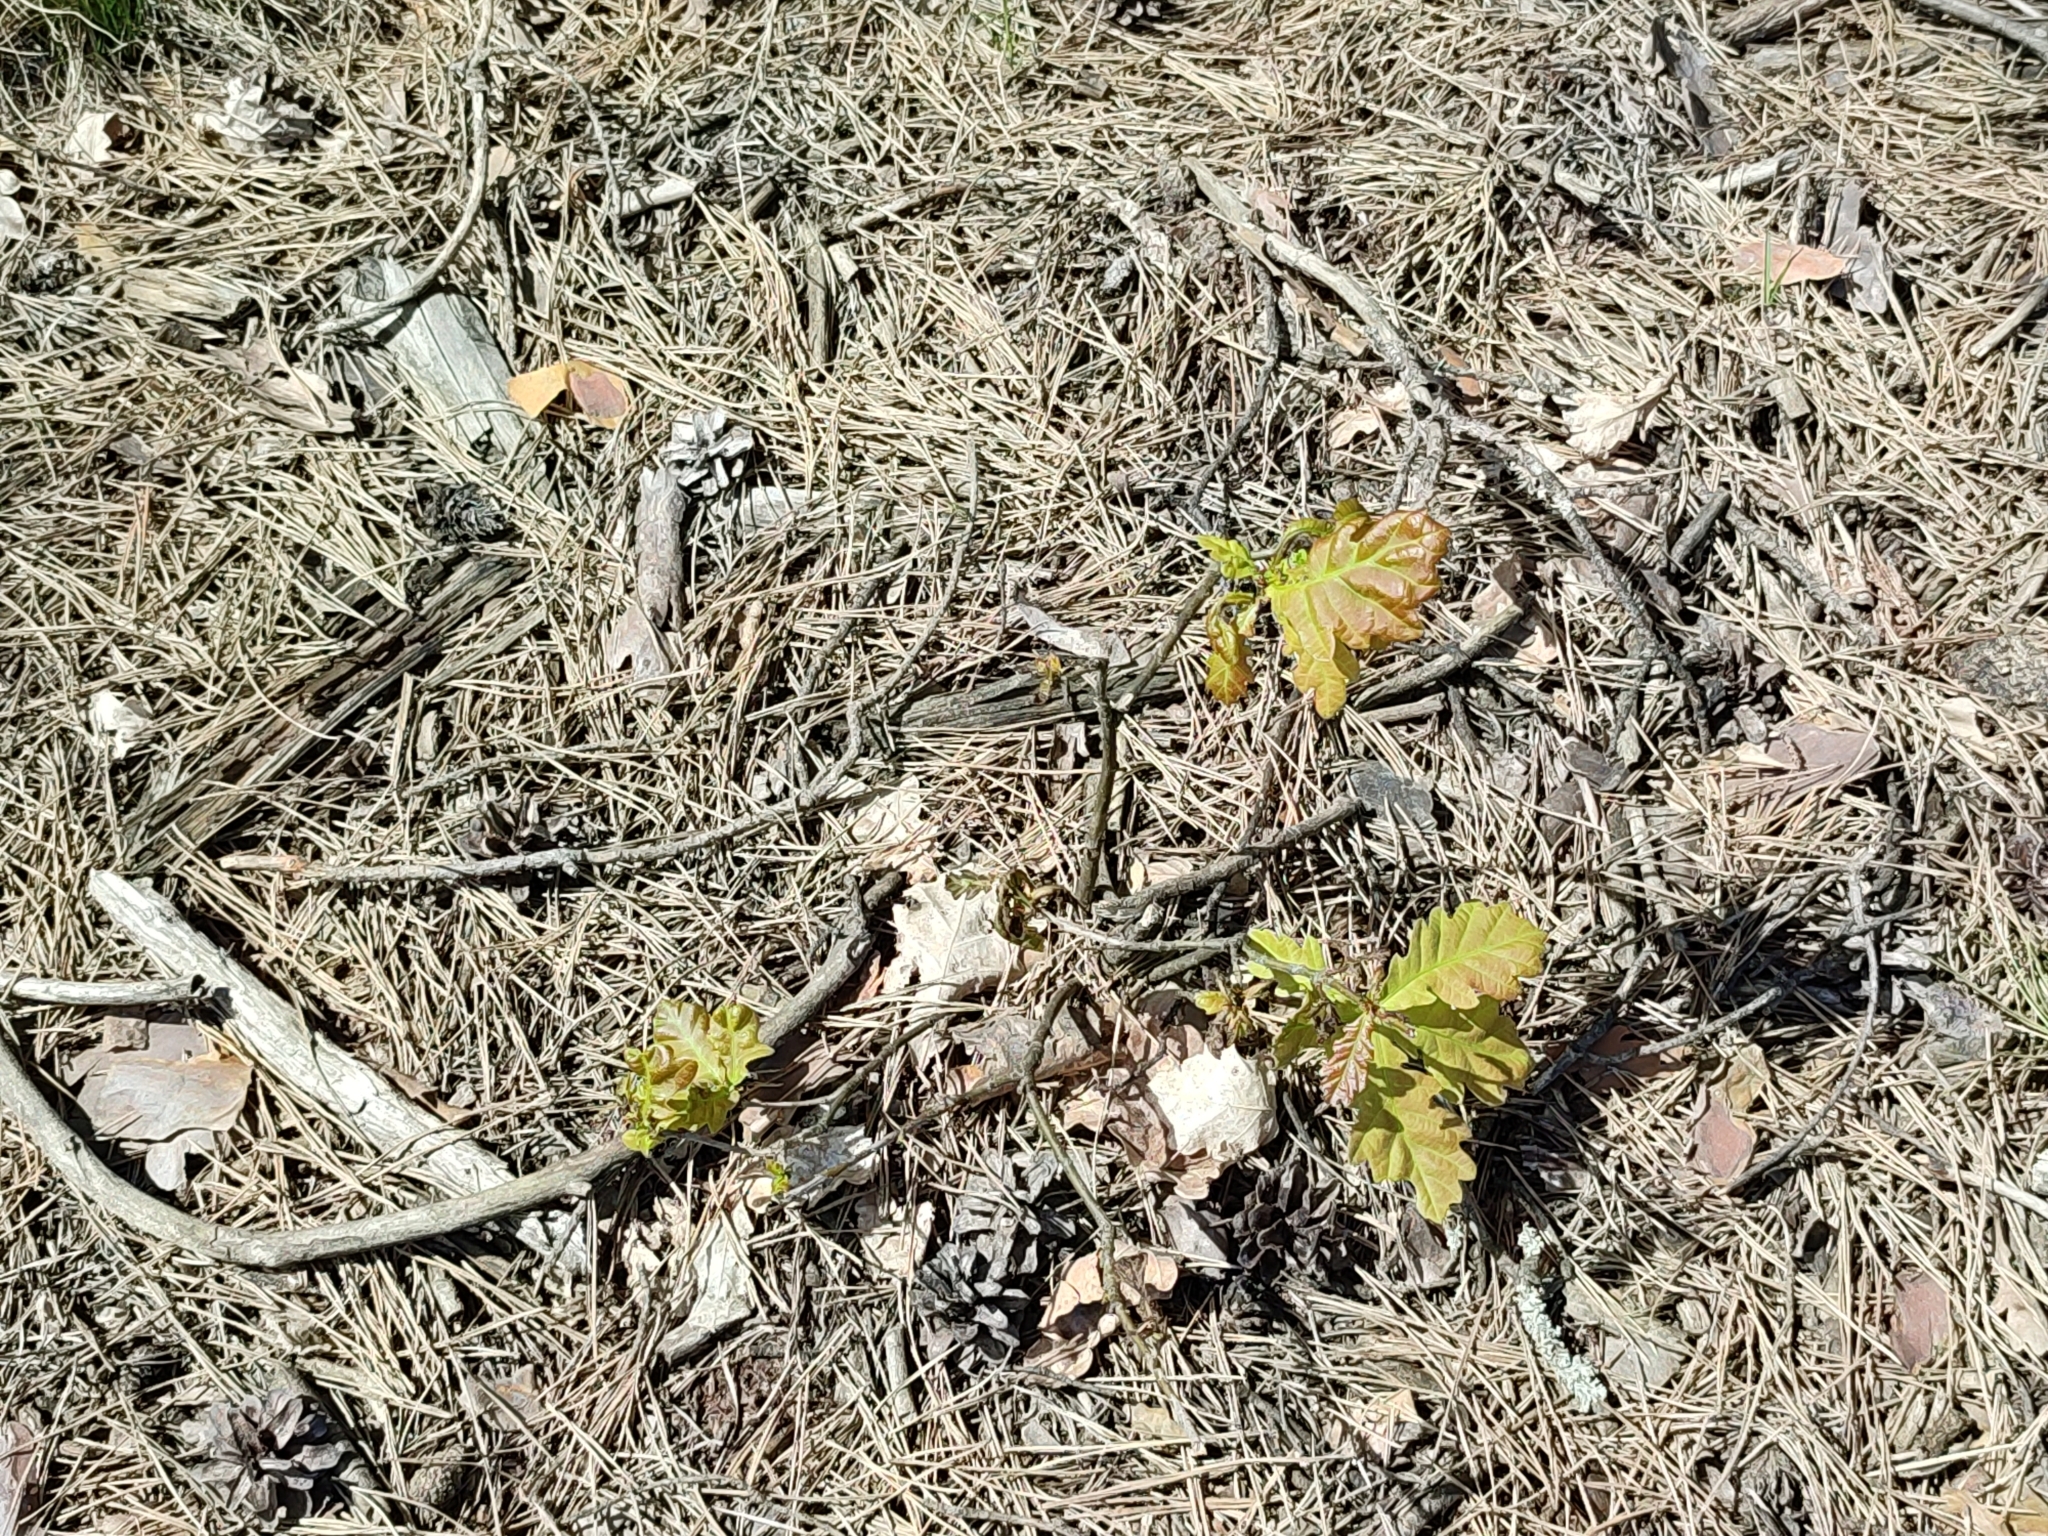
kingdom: Plantae
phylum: Tracheophyta
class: Magnoliopsida
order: Fagales
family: Fagaceae
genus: Quercus
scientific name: Quercus robur
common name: Pedunculate oak
